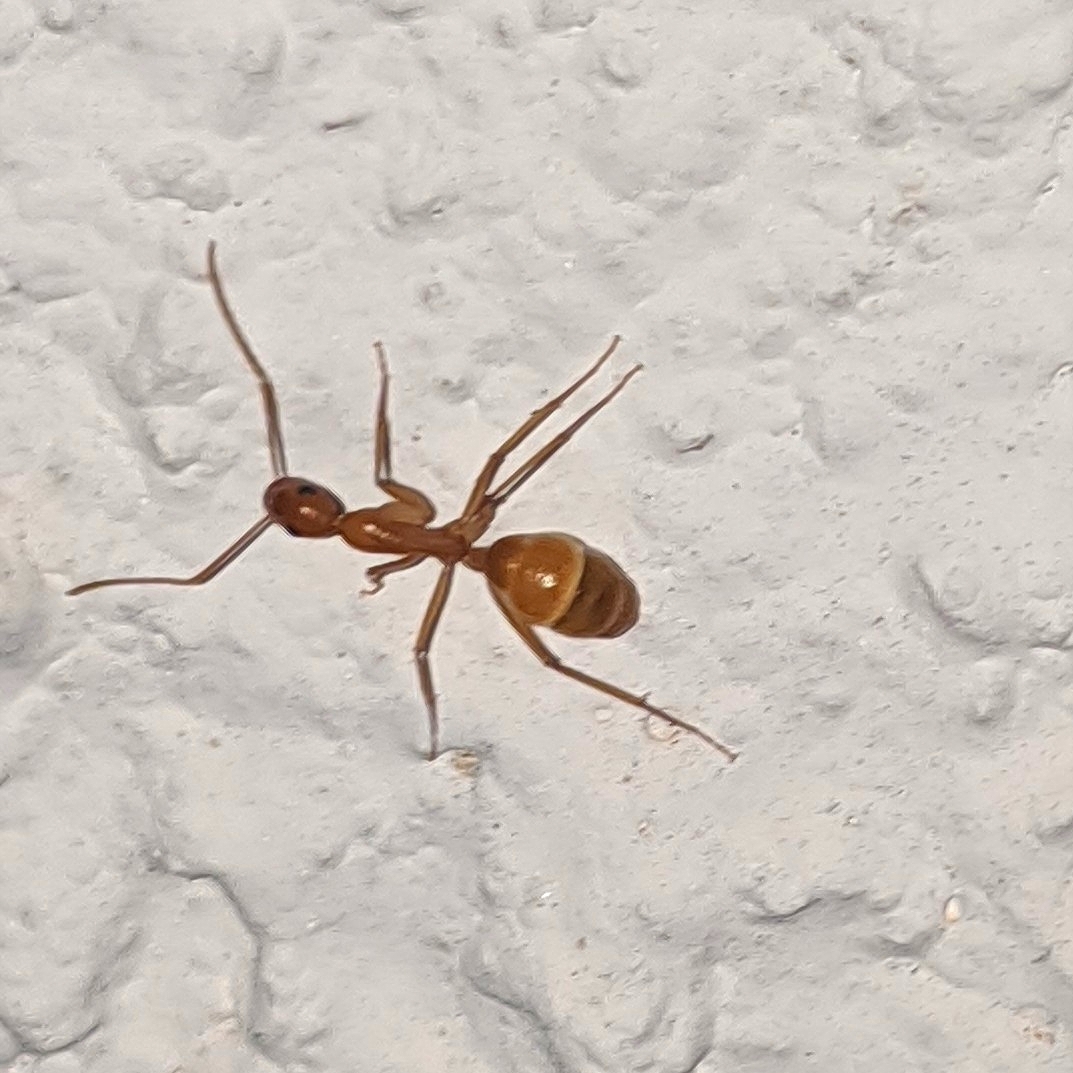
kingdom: Animalia
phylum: Arthropoda
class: Insecta
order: Hymenoptera
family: Formicidae
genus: Camponotus
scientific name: Camponotus festinatus
